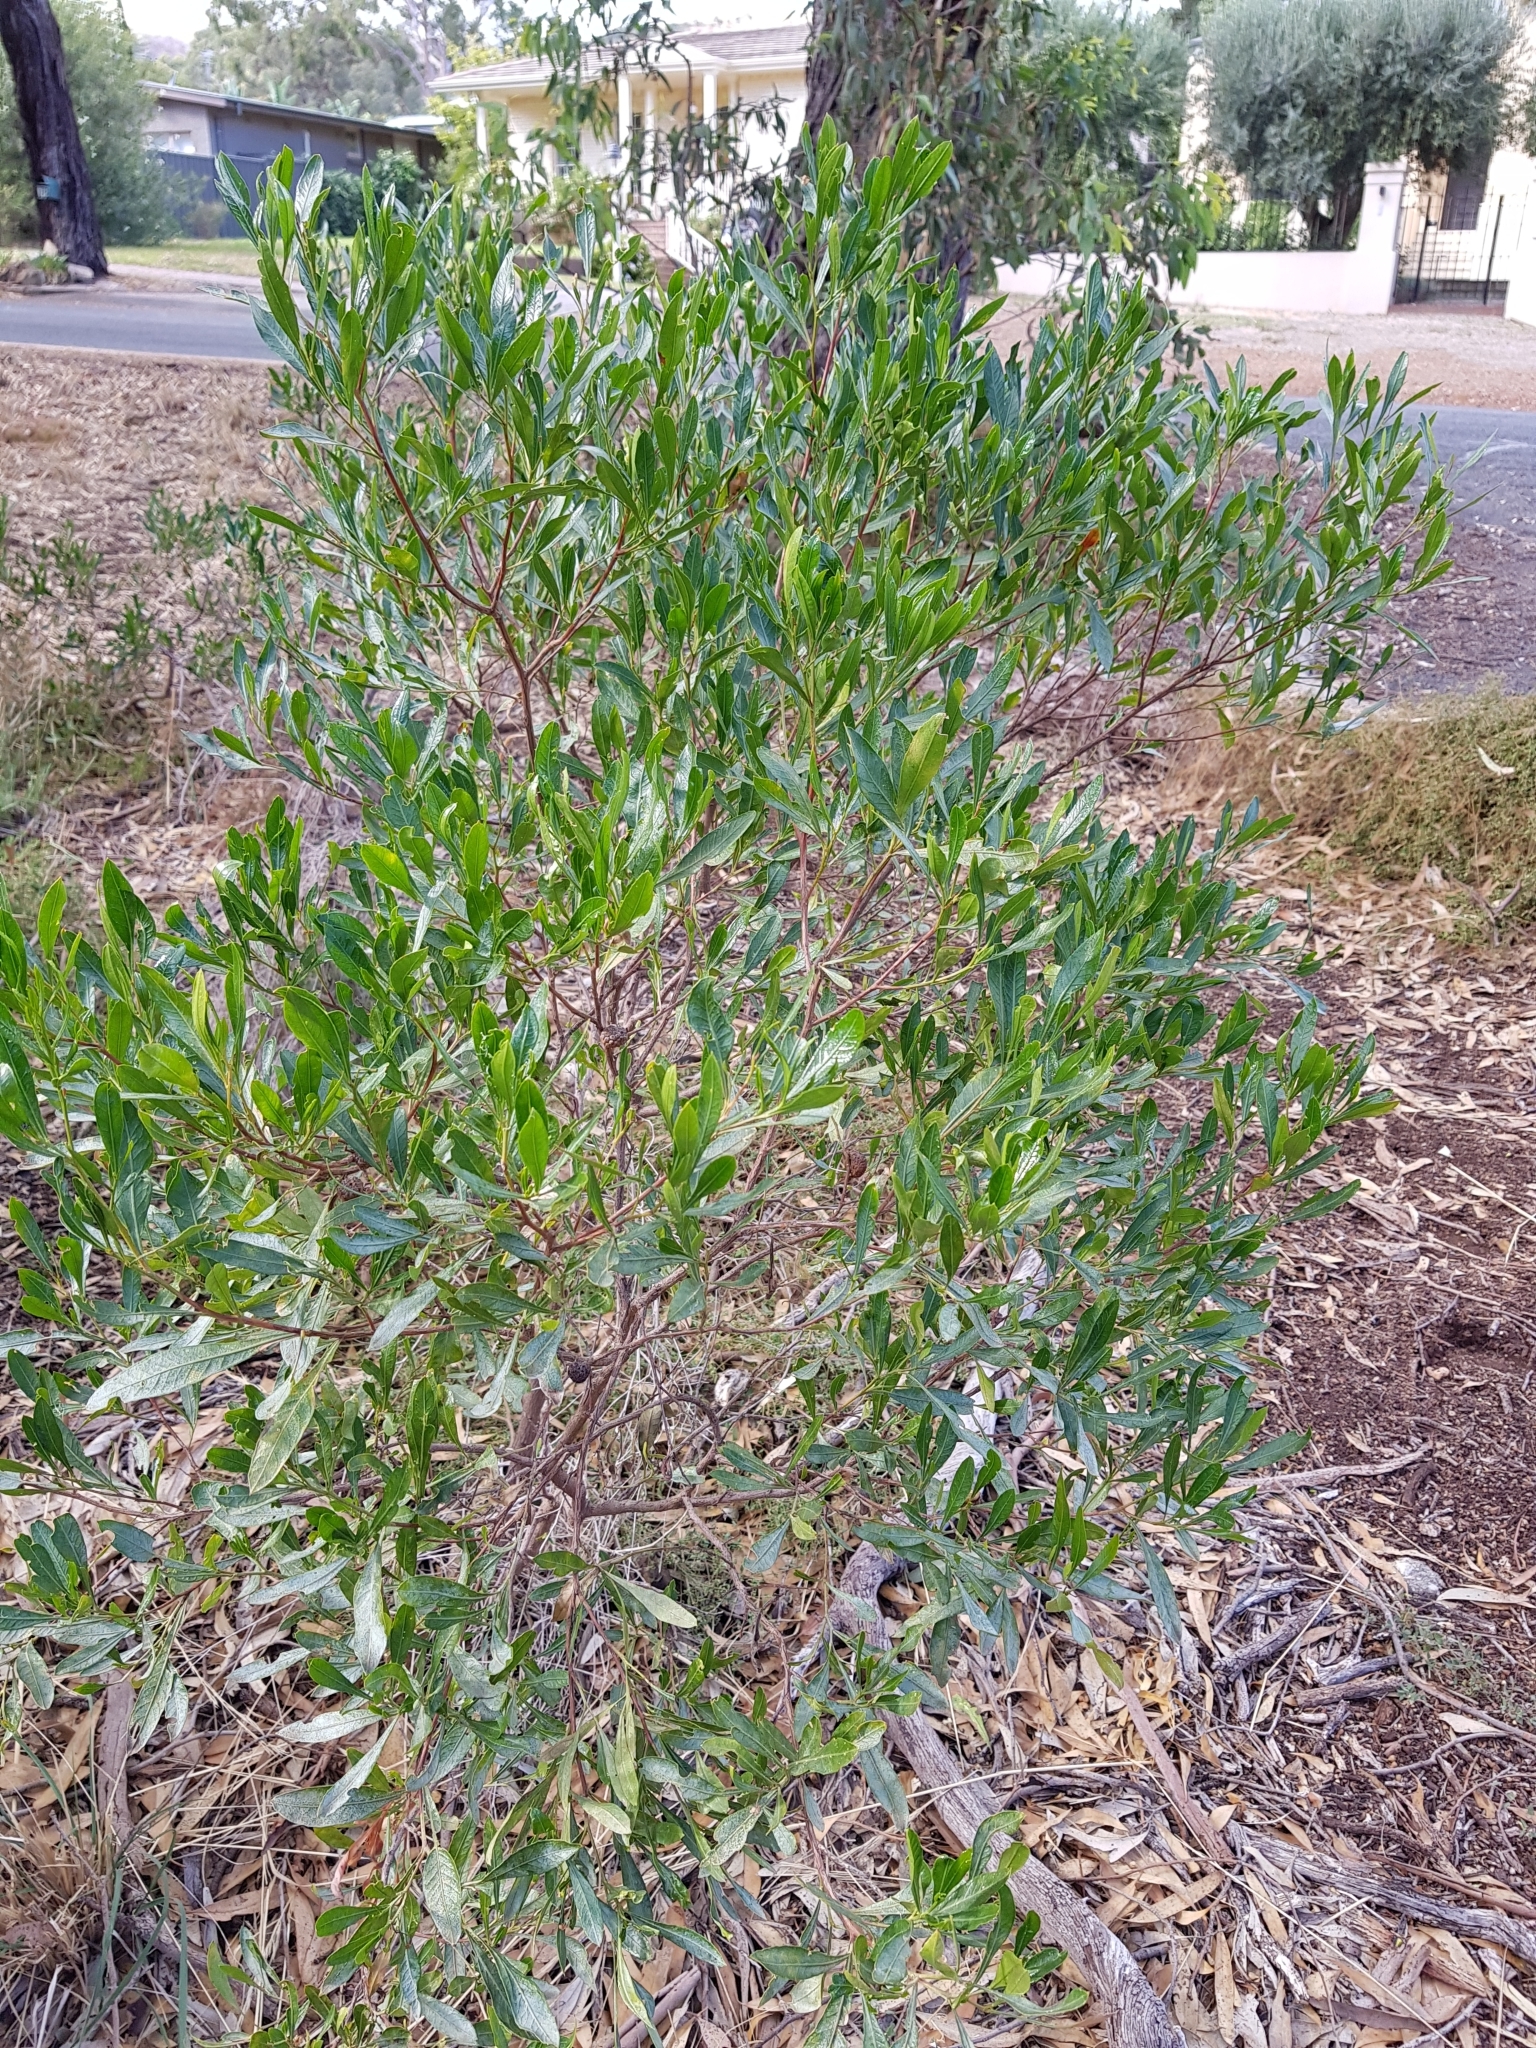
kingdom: Plantae
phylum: Tracheophyta
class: Magnoliopsida
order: Sapindales
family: Sapindaceae
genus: Dodonaea
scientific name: Dodonaea viscosa
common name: Hopbush
